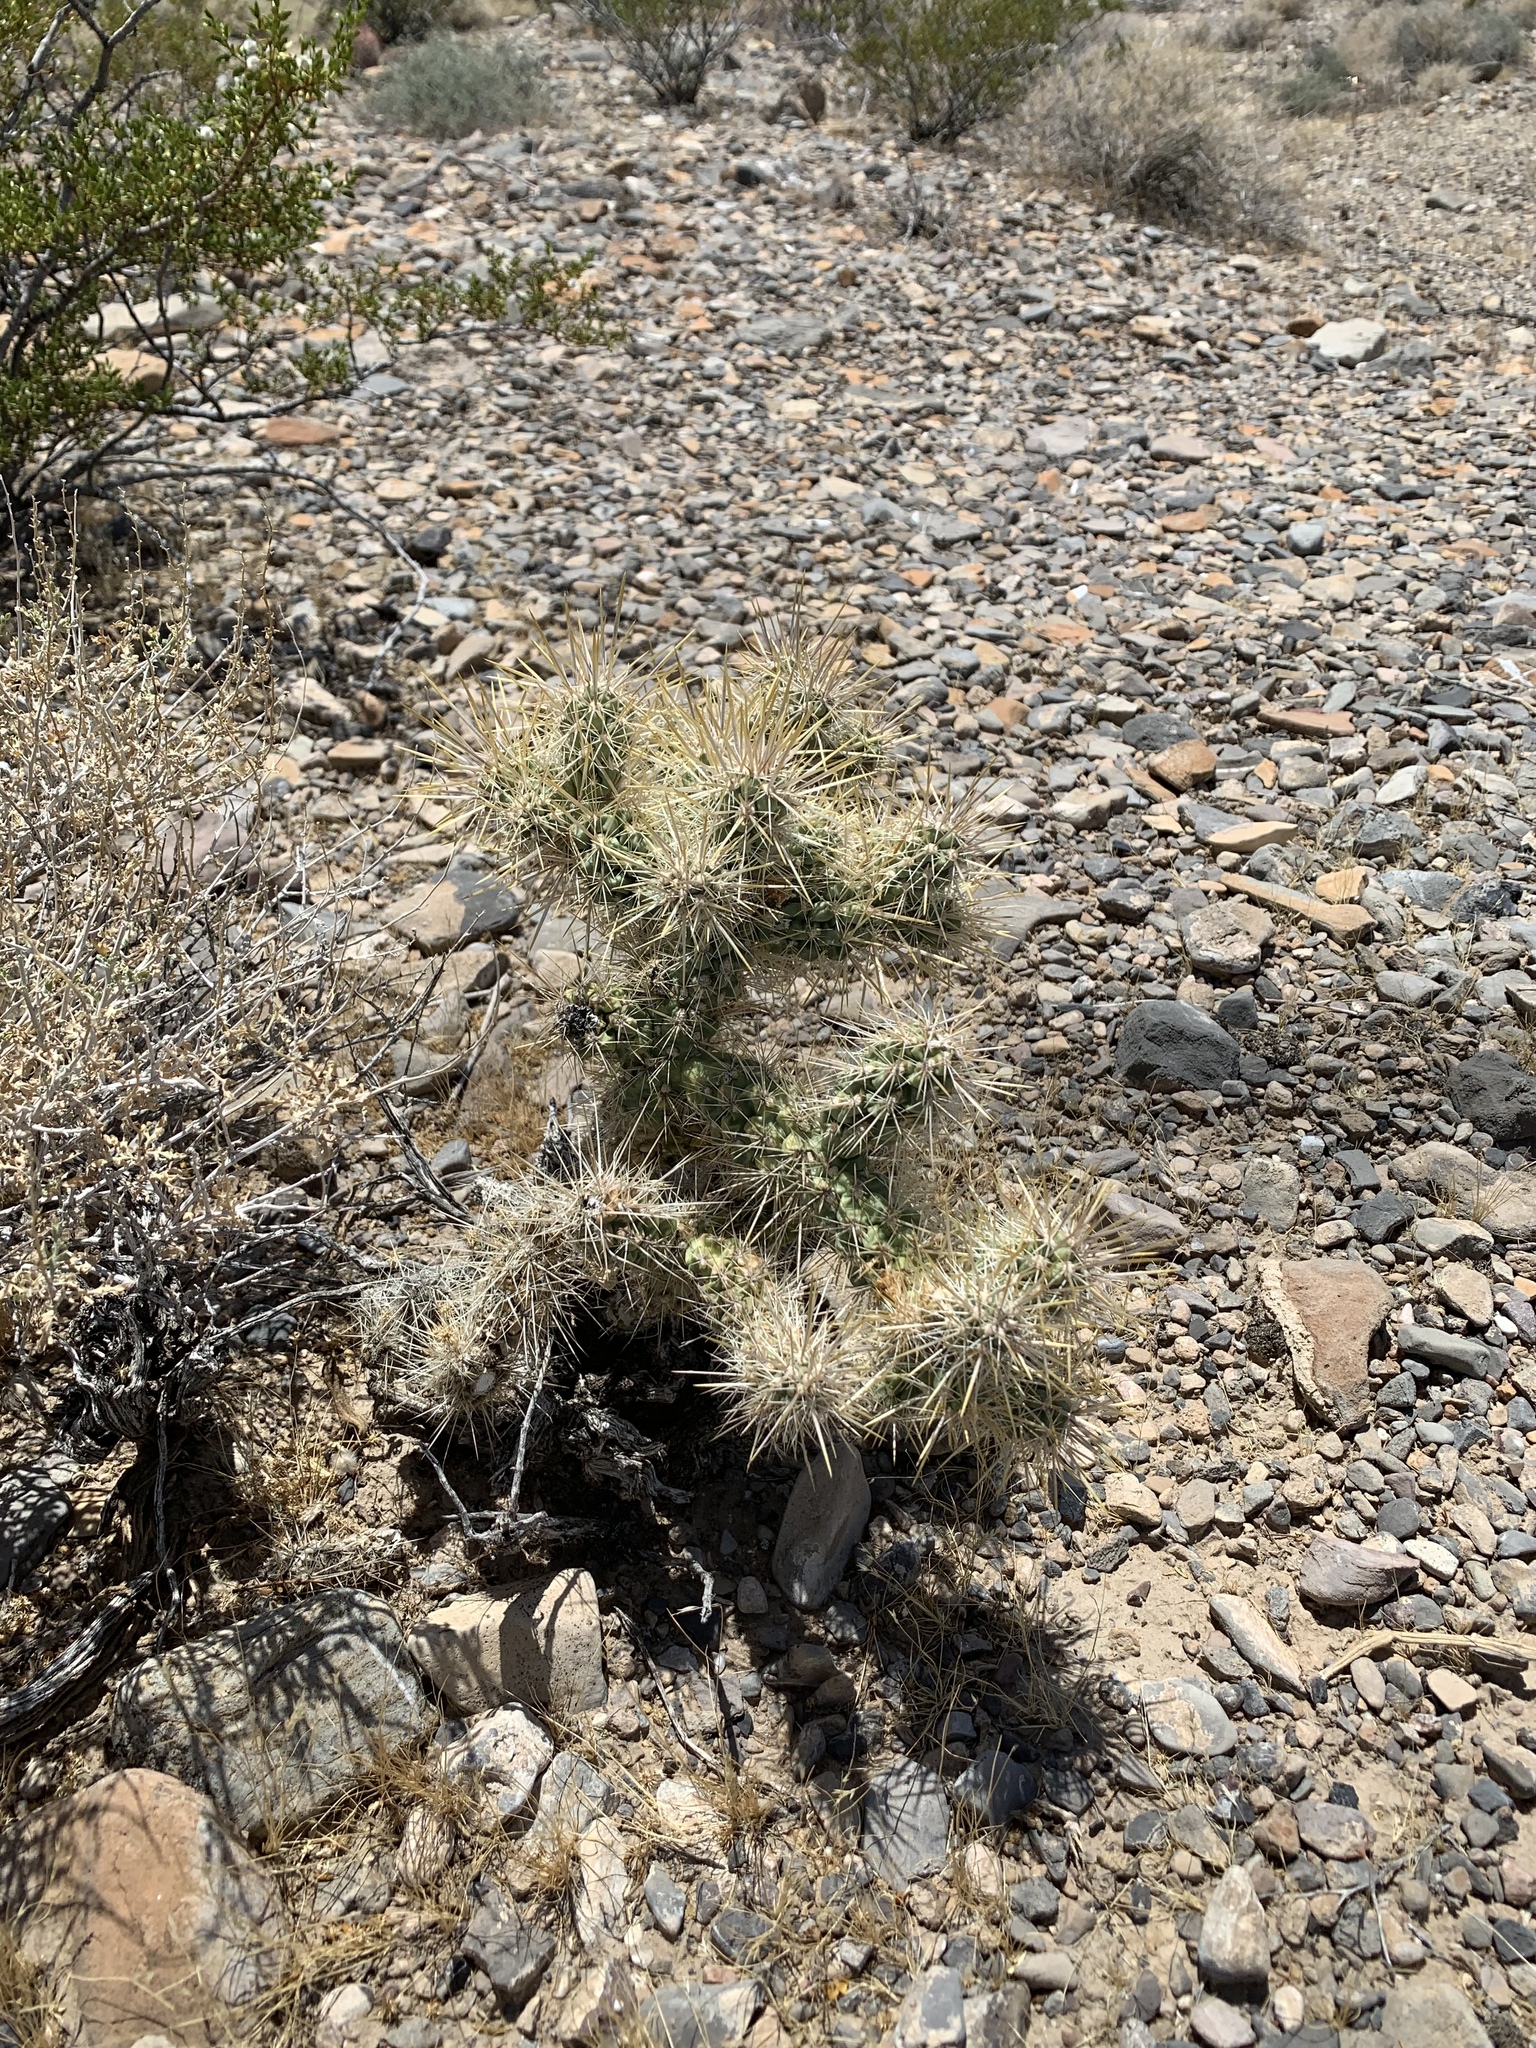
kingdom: Plantae
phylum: Tracheophyta
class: Magnoliopsida
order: Caryophyllales
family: Cactaceae
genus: Cylindropuntia
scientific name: Cylindropuntia echinocarpa
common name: Ground cholla
